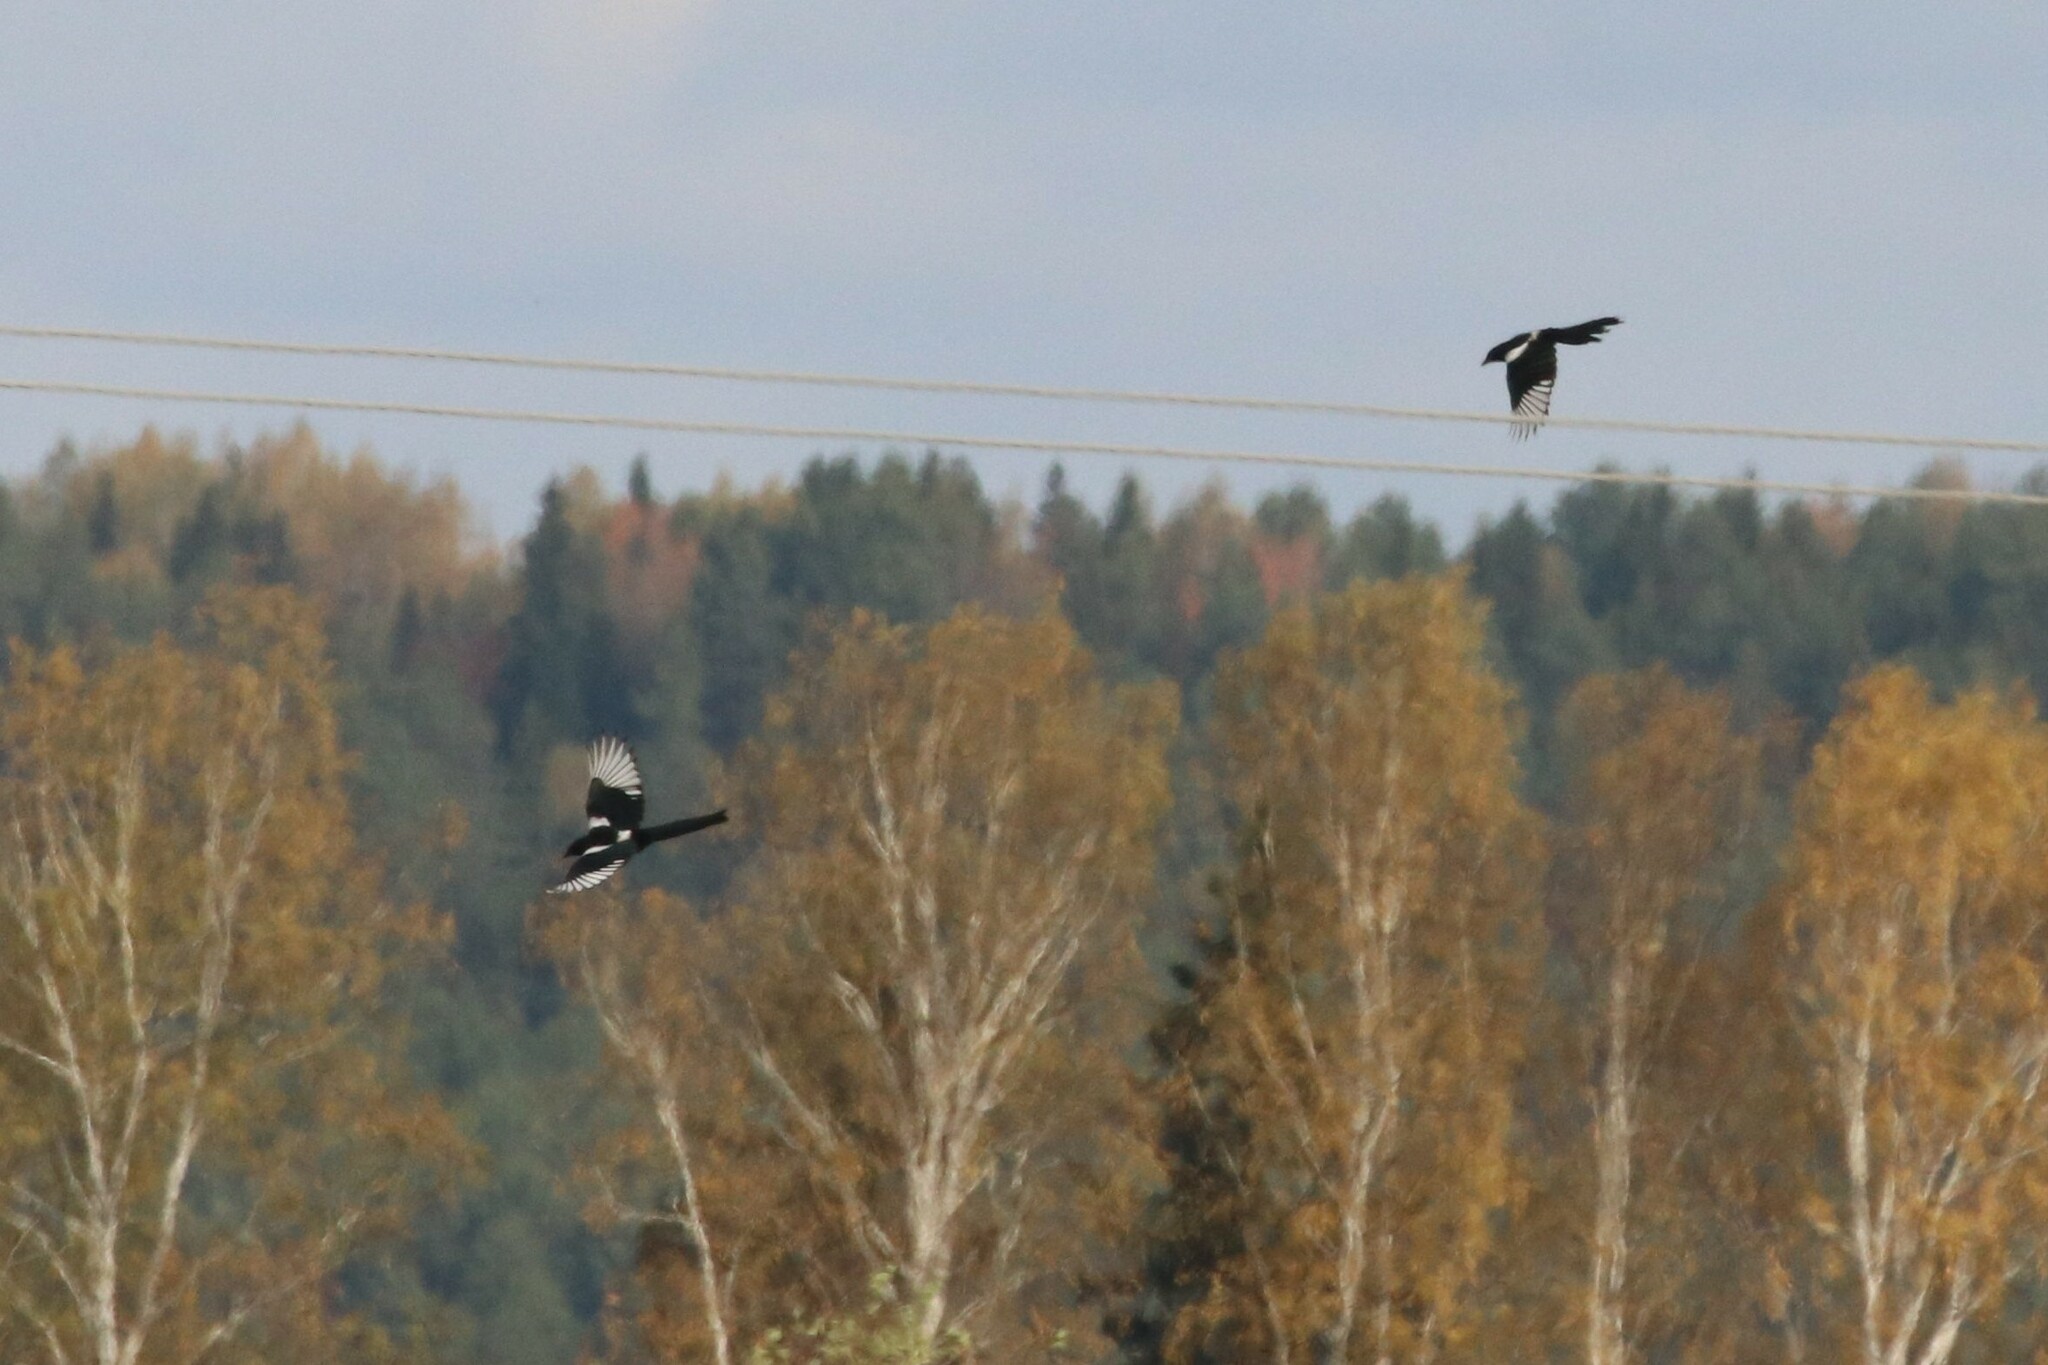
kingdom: Animalia
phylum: Chordata
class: Aves
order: Passeriformes
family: Corvidae
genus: Pica
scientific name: Pica pica
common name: Eurasian magpie
